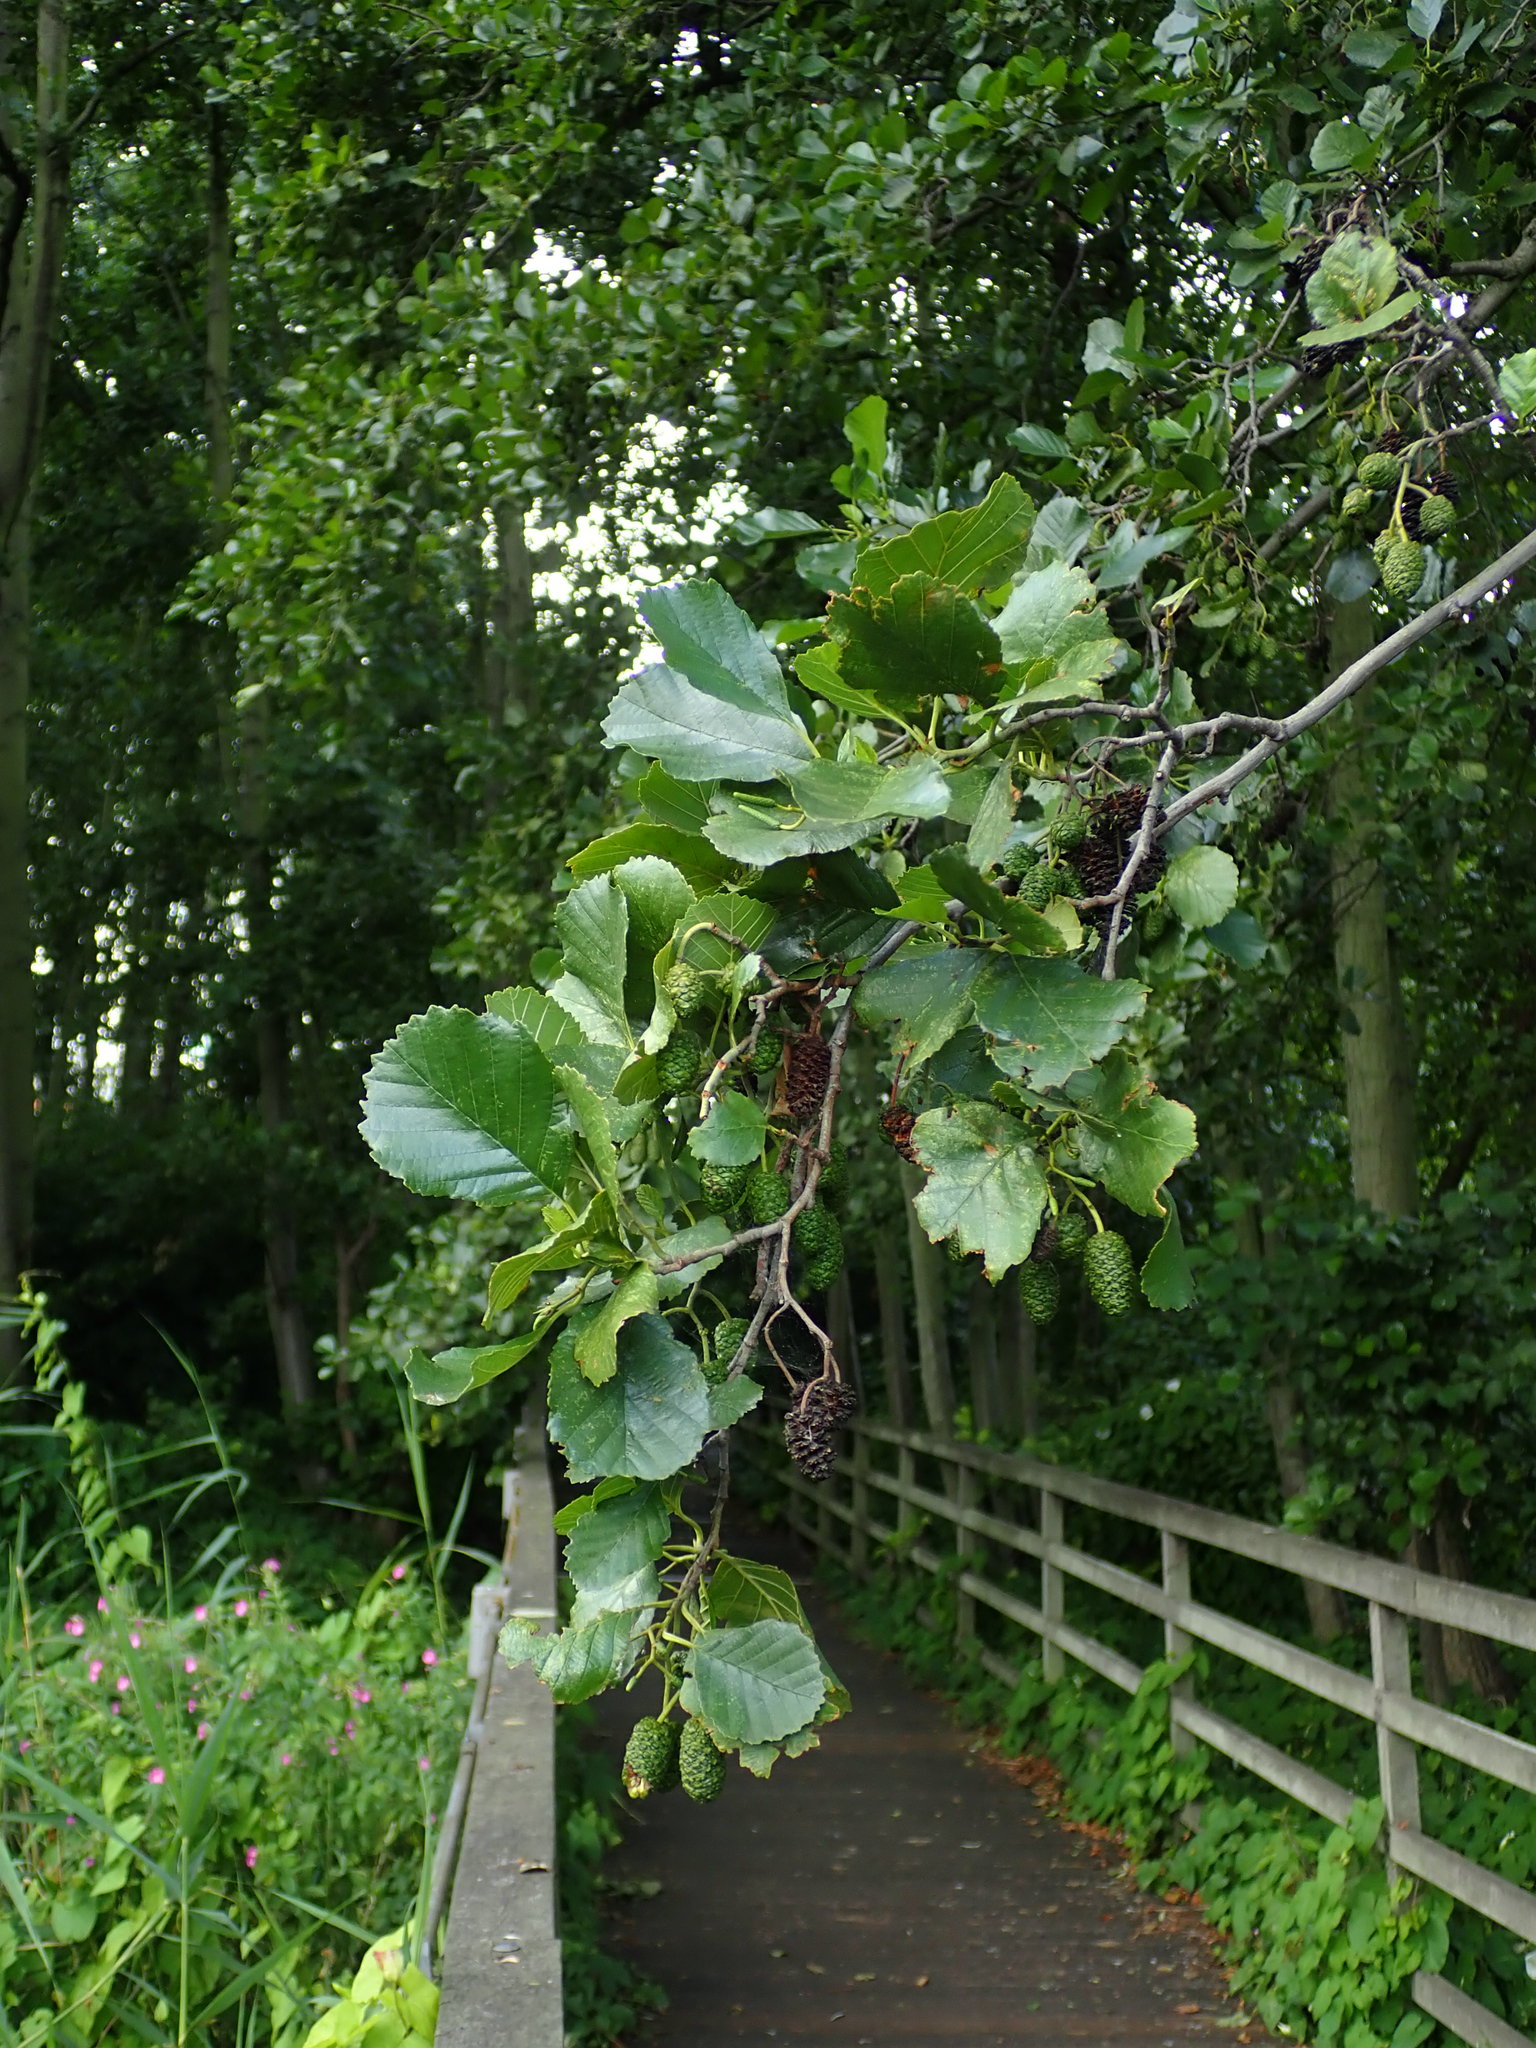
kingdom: Plantae
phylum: Tracheophyta
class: Magnoliopsida
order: Fagales
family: Betulaceae
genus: Alnus
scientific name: Alnus glutinosa
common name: Black alder
